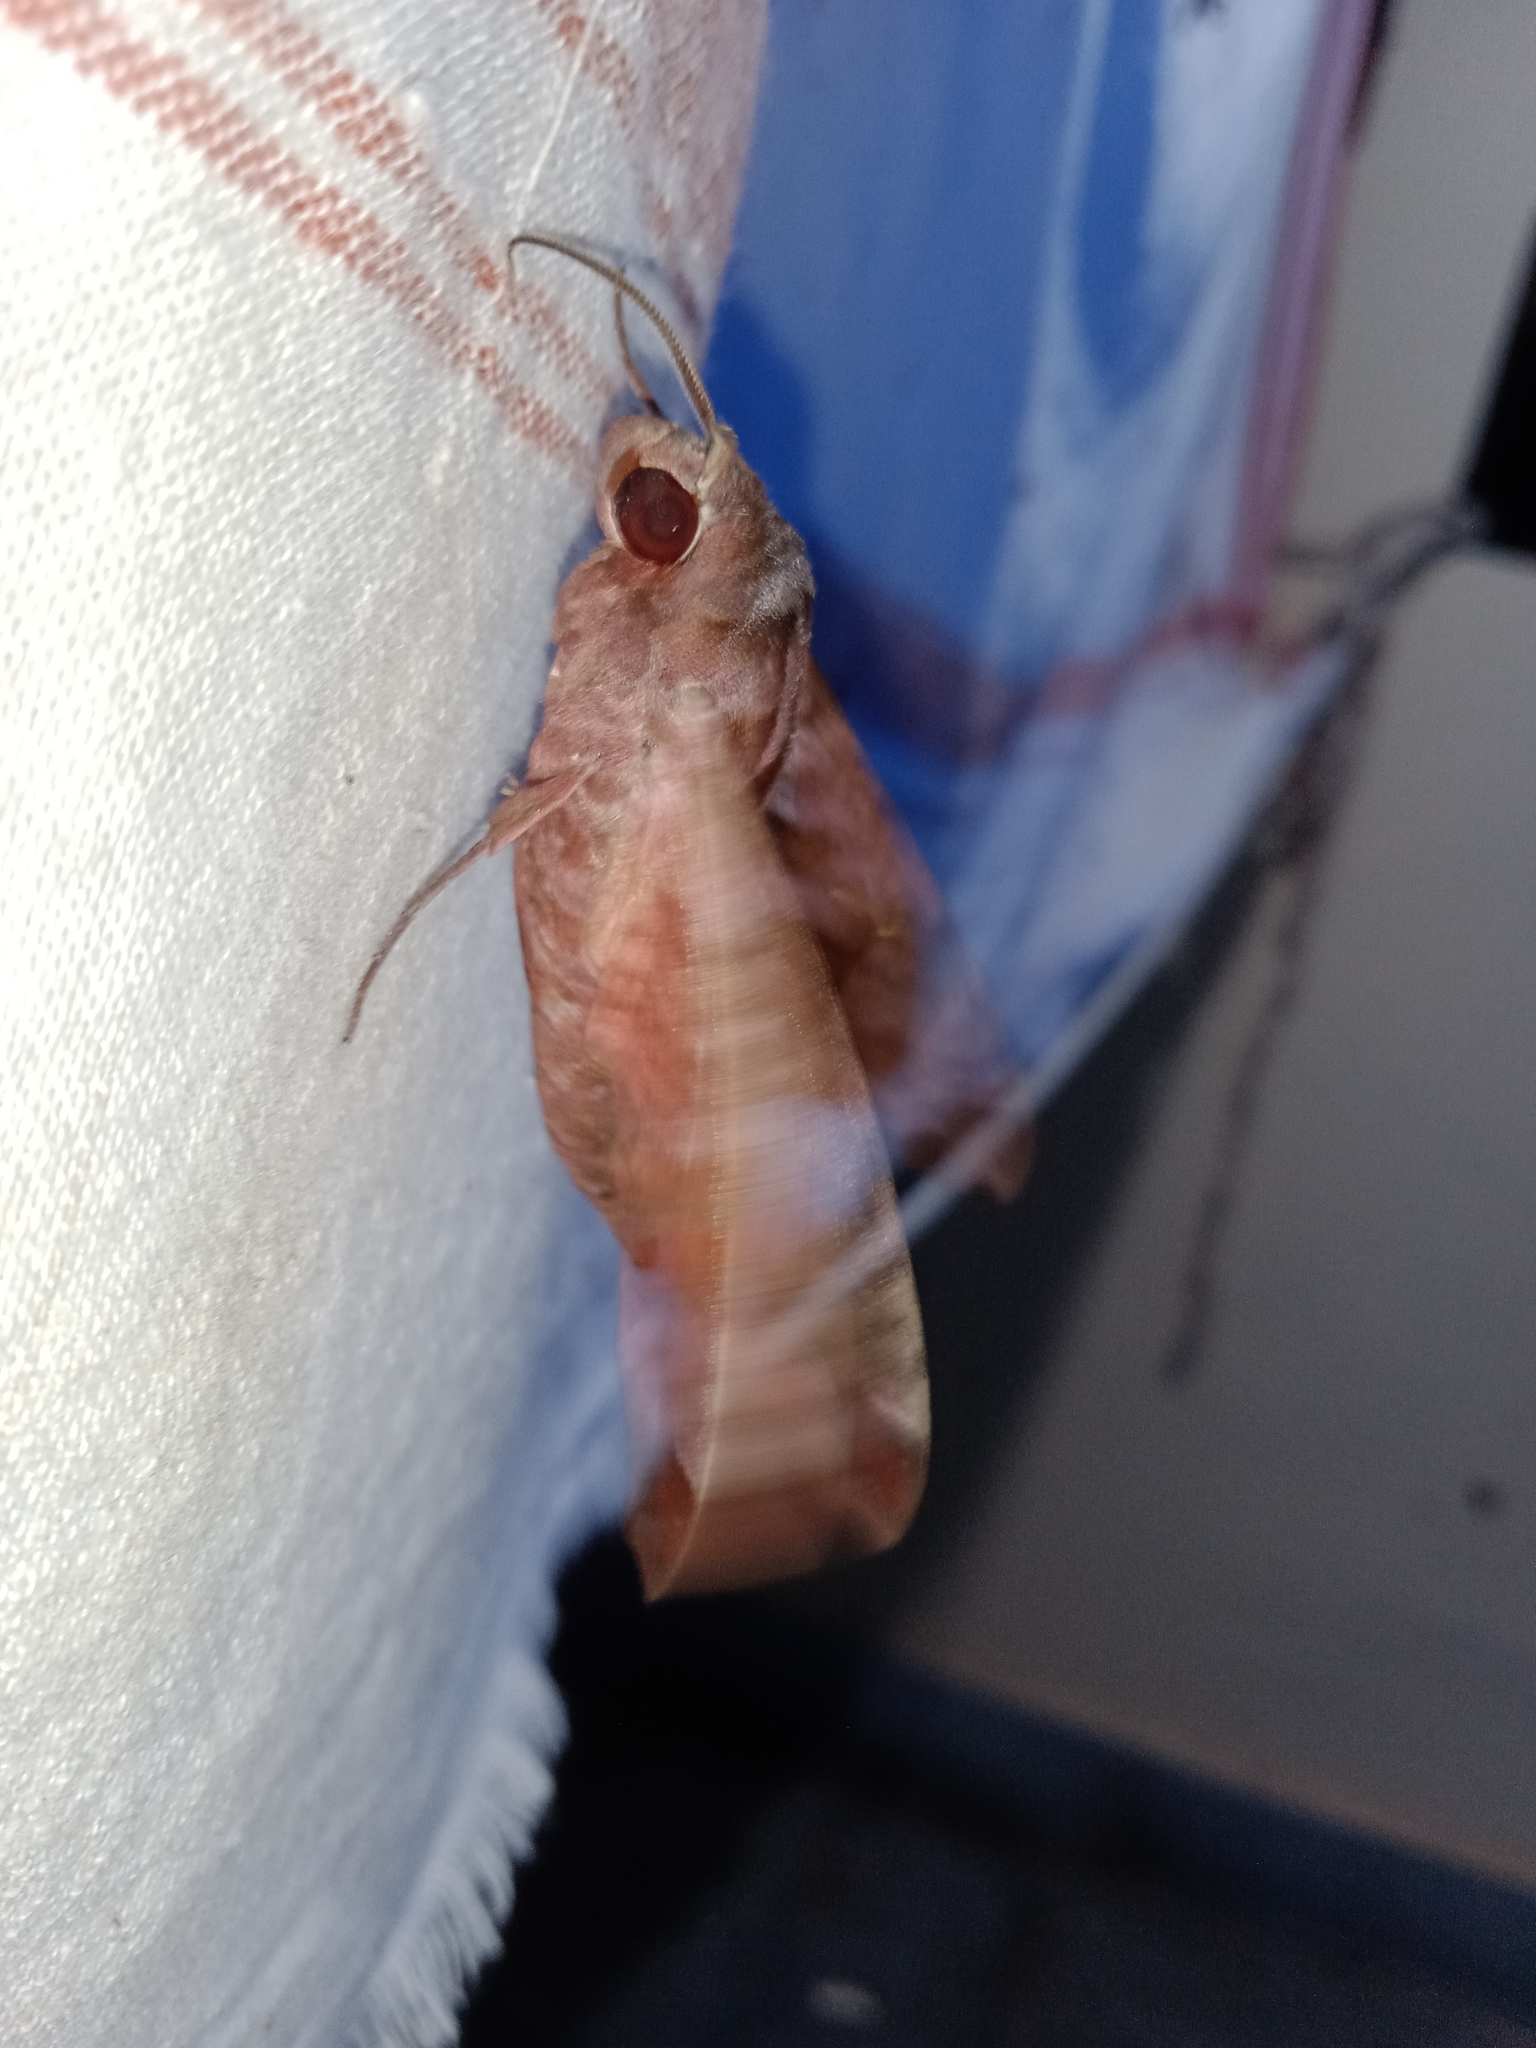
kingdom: Animalia
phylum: Arthropoda
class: Insecta
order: Lepidoptera
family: Sphingidae
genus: Acosmeryx
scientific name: Acosmeryx anceus
